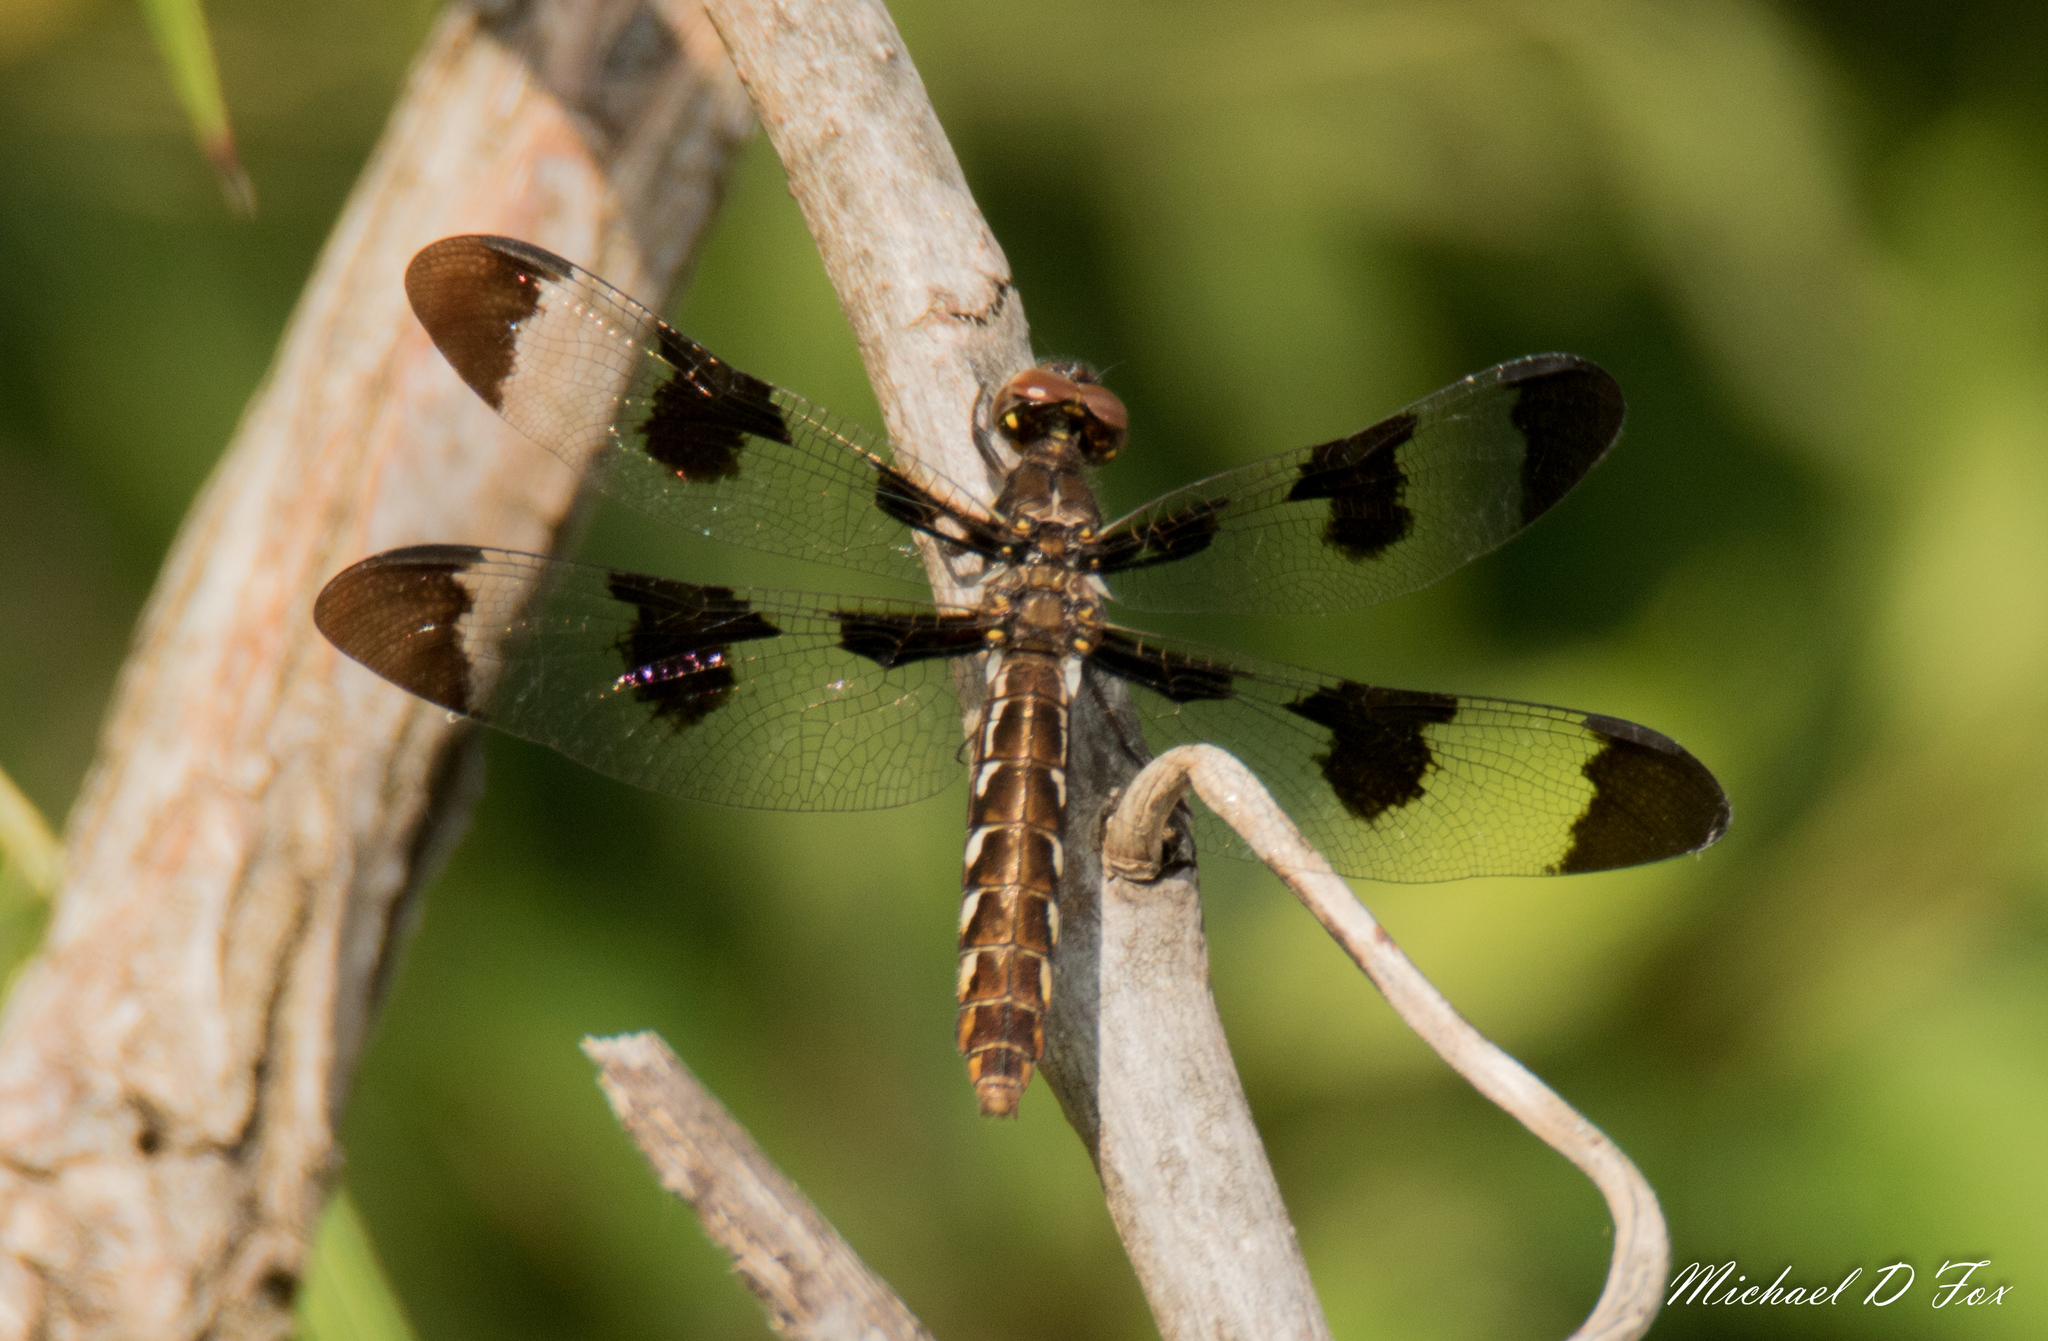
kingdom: Animalia
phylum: Arthropoda
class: Insecta
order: Odonata
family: Libellulidae
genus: Plathemis
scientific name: Plathemis lydia
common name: Common whitetail
